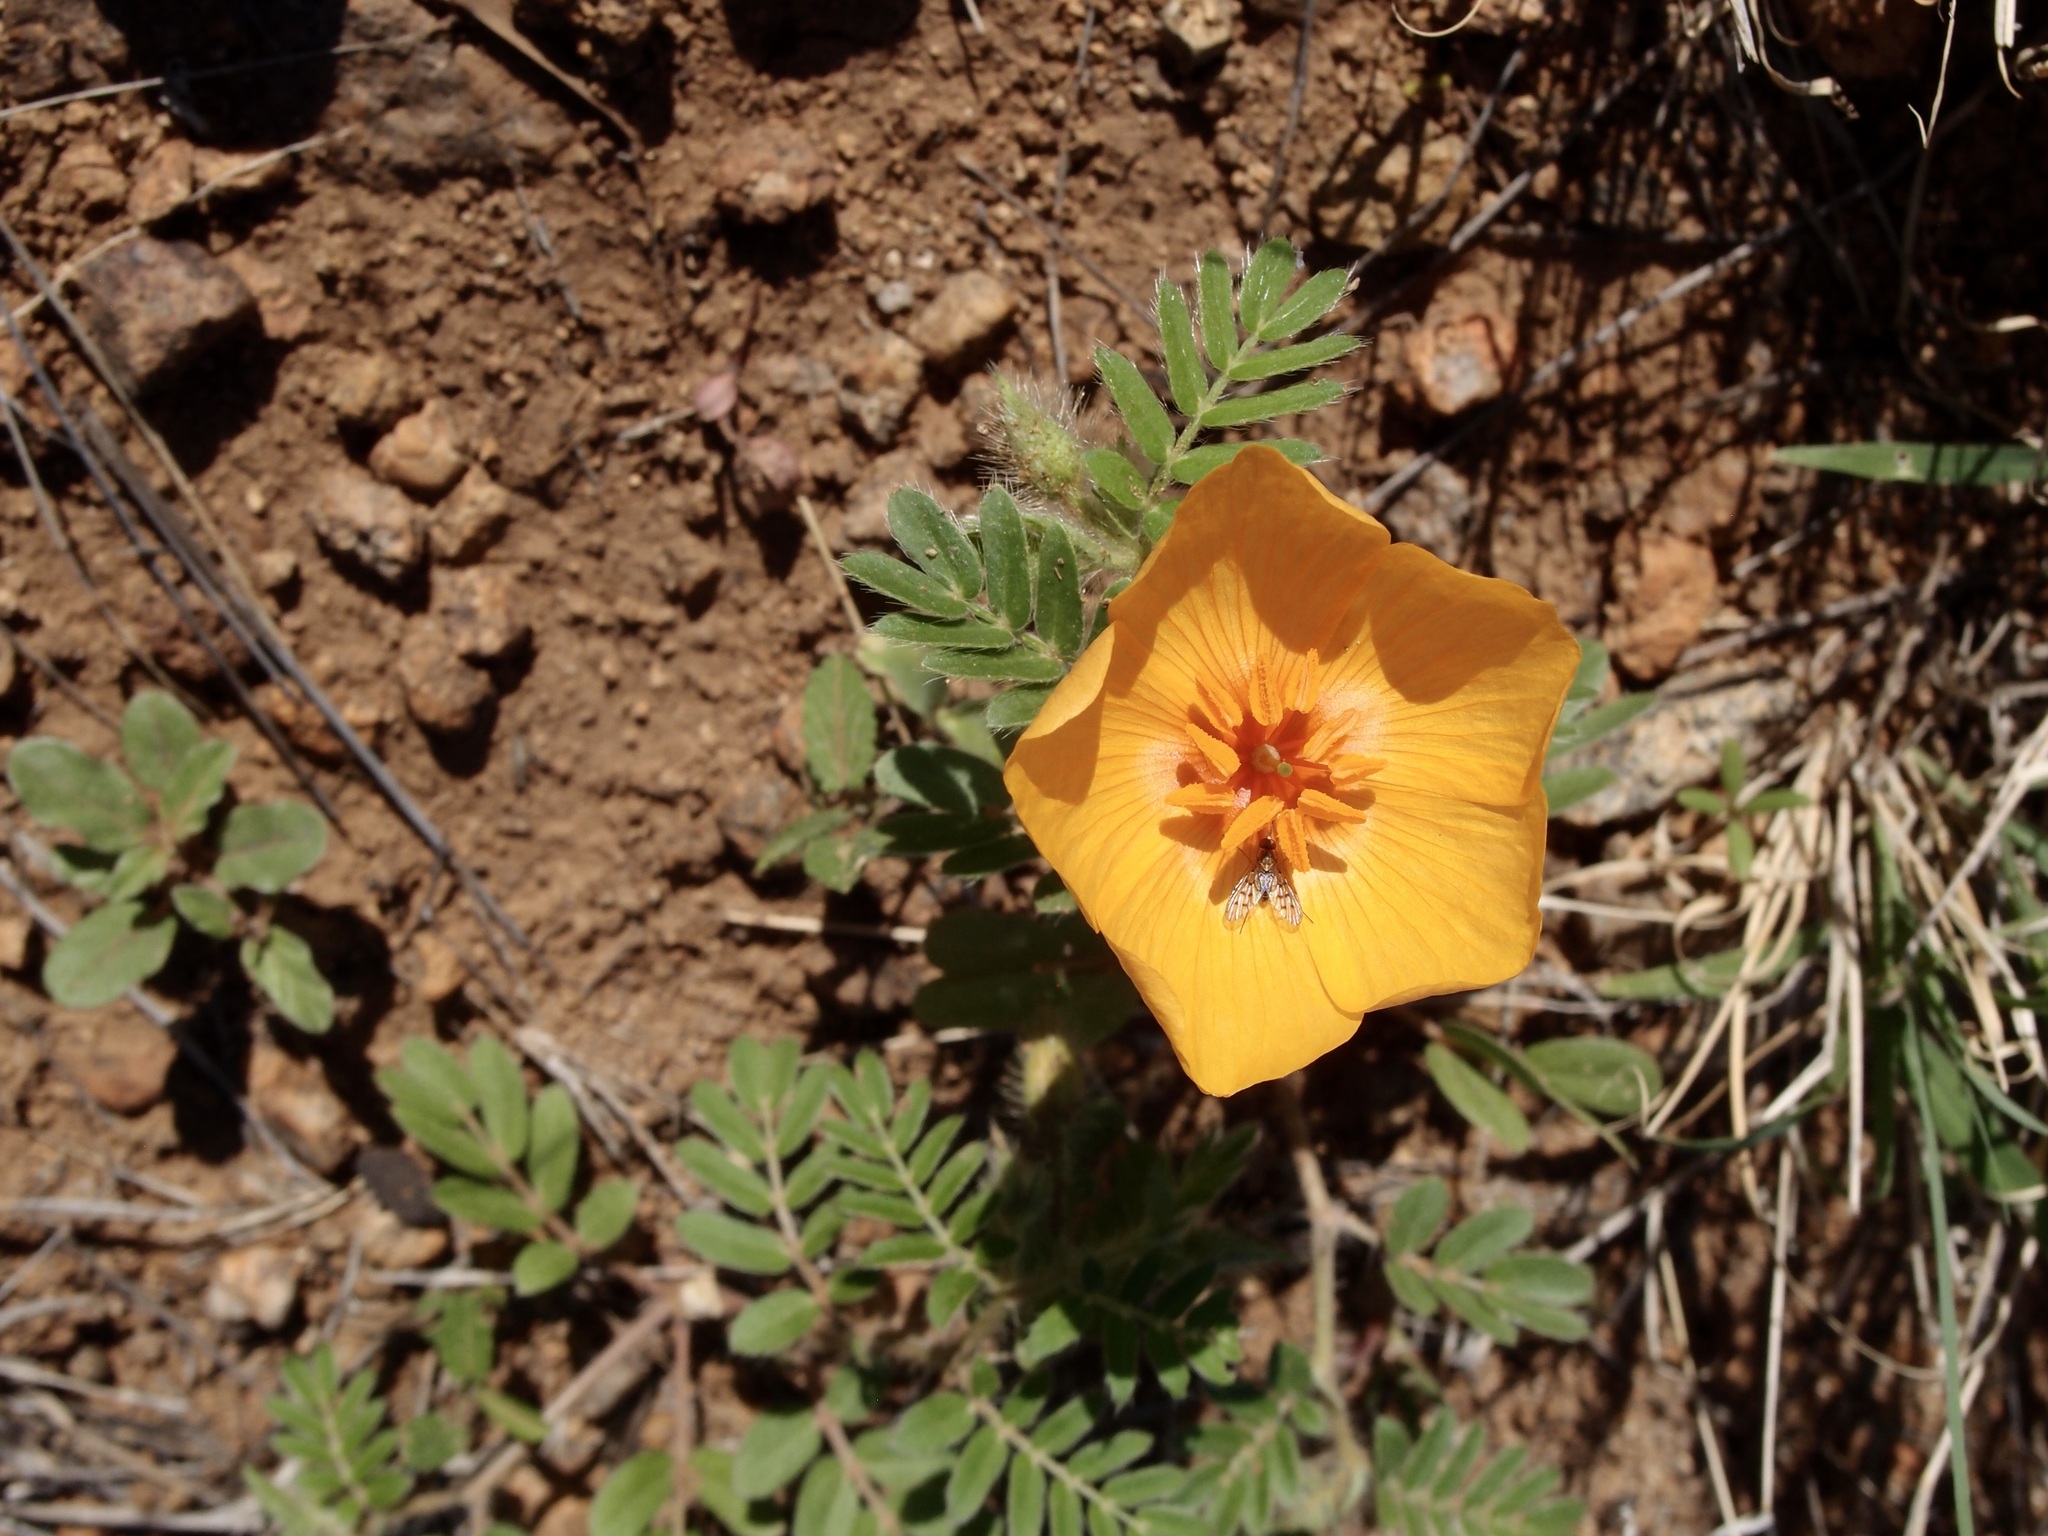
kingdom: Plantae
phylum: Tracheophyta
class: Magnoliopsida
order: Zygophyllales
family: Zygophyllaceae
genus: Kallstroemia
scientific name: Kallstroemia grandiflora
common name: Arizona-poppy
